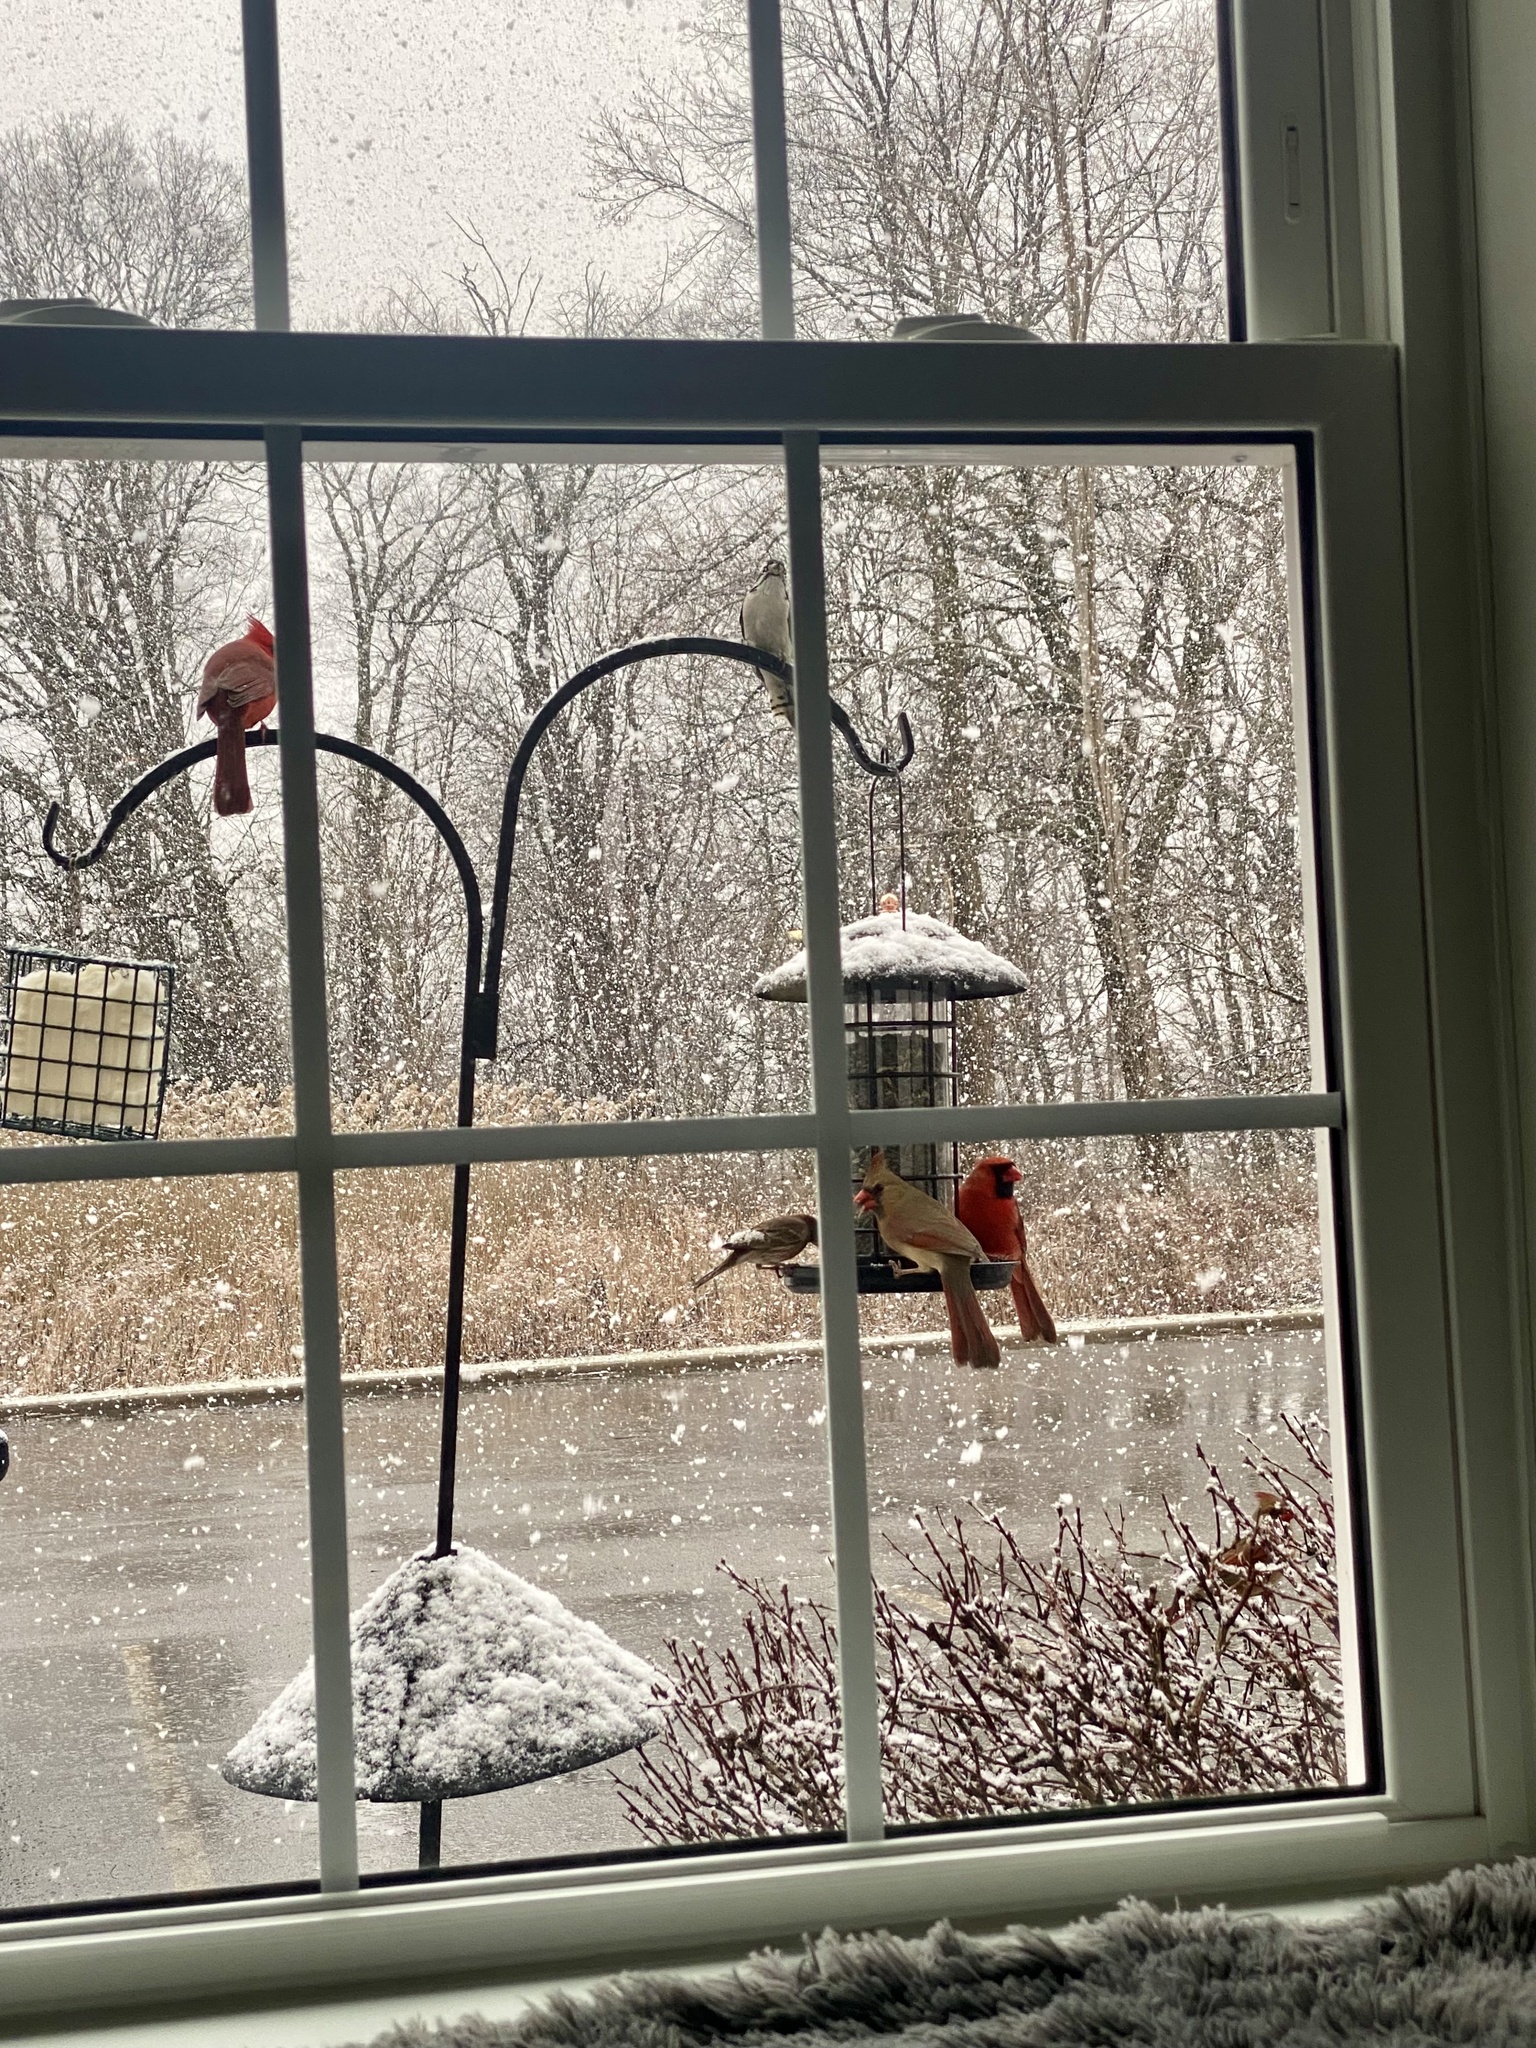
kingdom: Animalia
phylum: Chordata
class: Aves
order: Passeriformes
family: Cardinalidae
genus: Cardinalis
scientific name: Cardinalis cardinalis
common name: Northern cardinal
